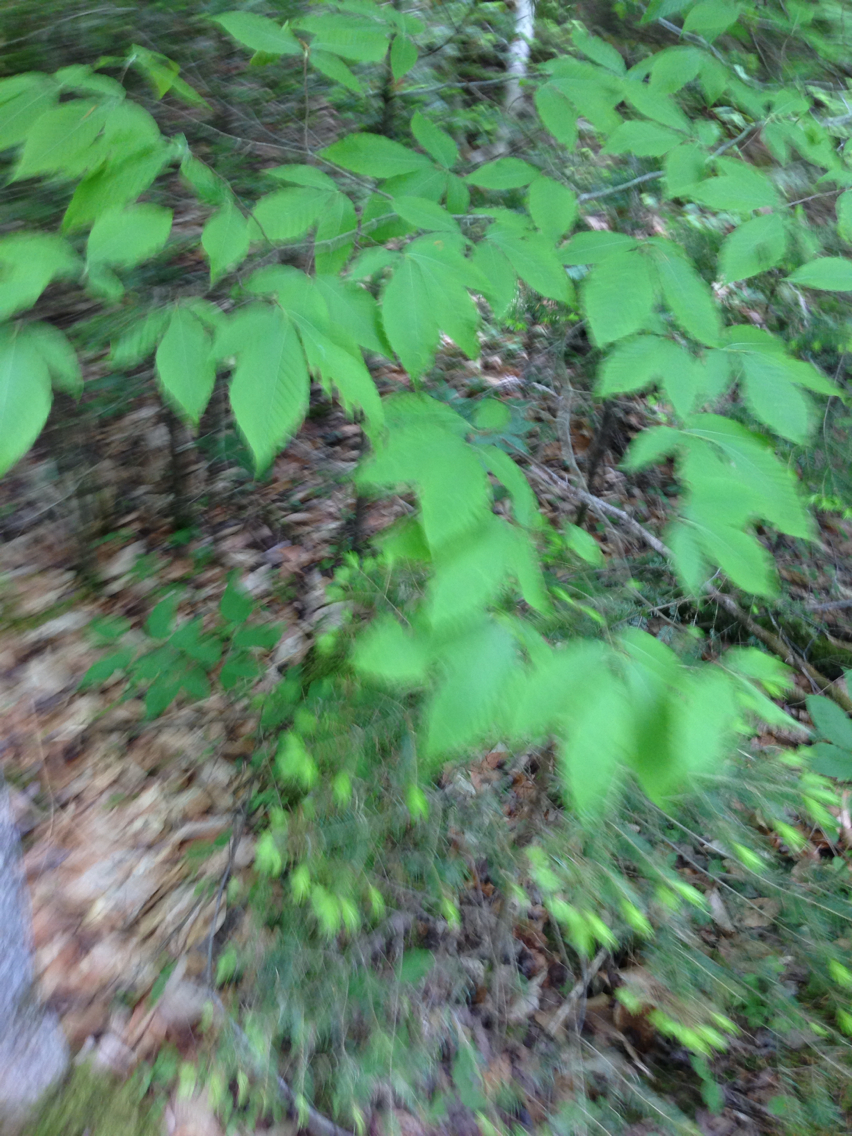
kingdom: Plantae
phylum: Tracheophyta
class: Magnoliopsida
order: Fagales
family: Fagaceae
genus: Fagus
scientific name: Fagus grandifolia
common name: American beech
